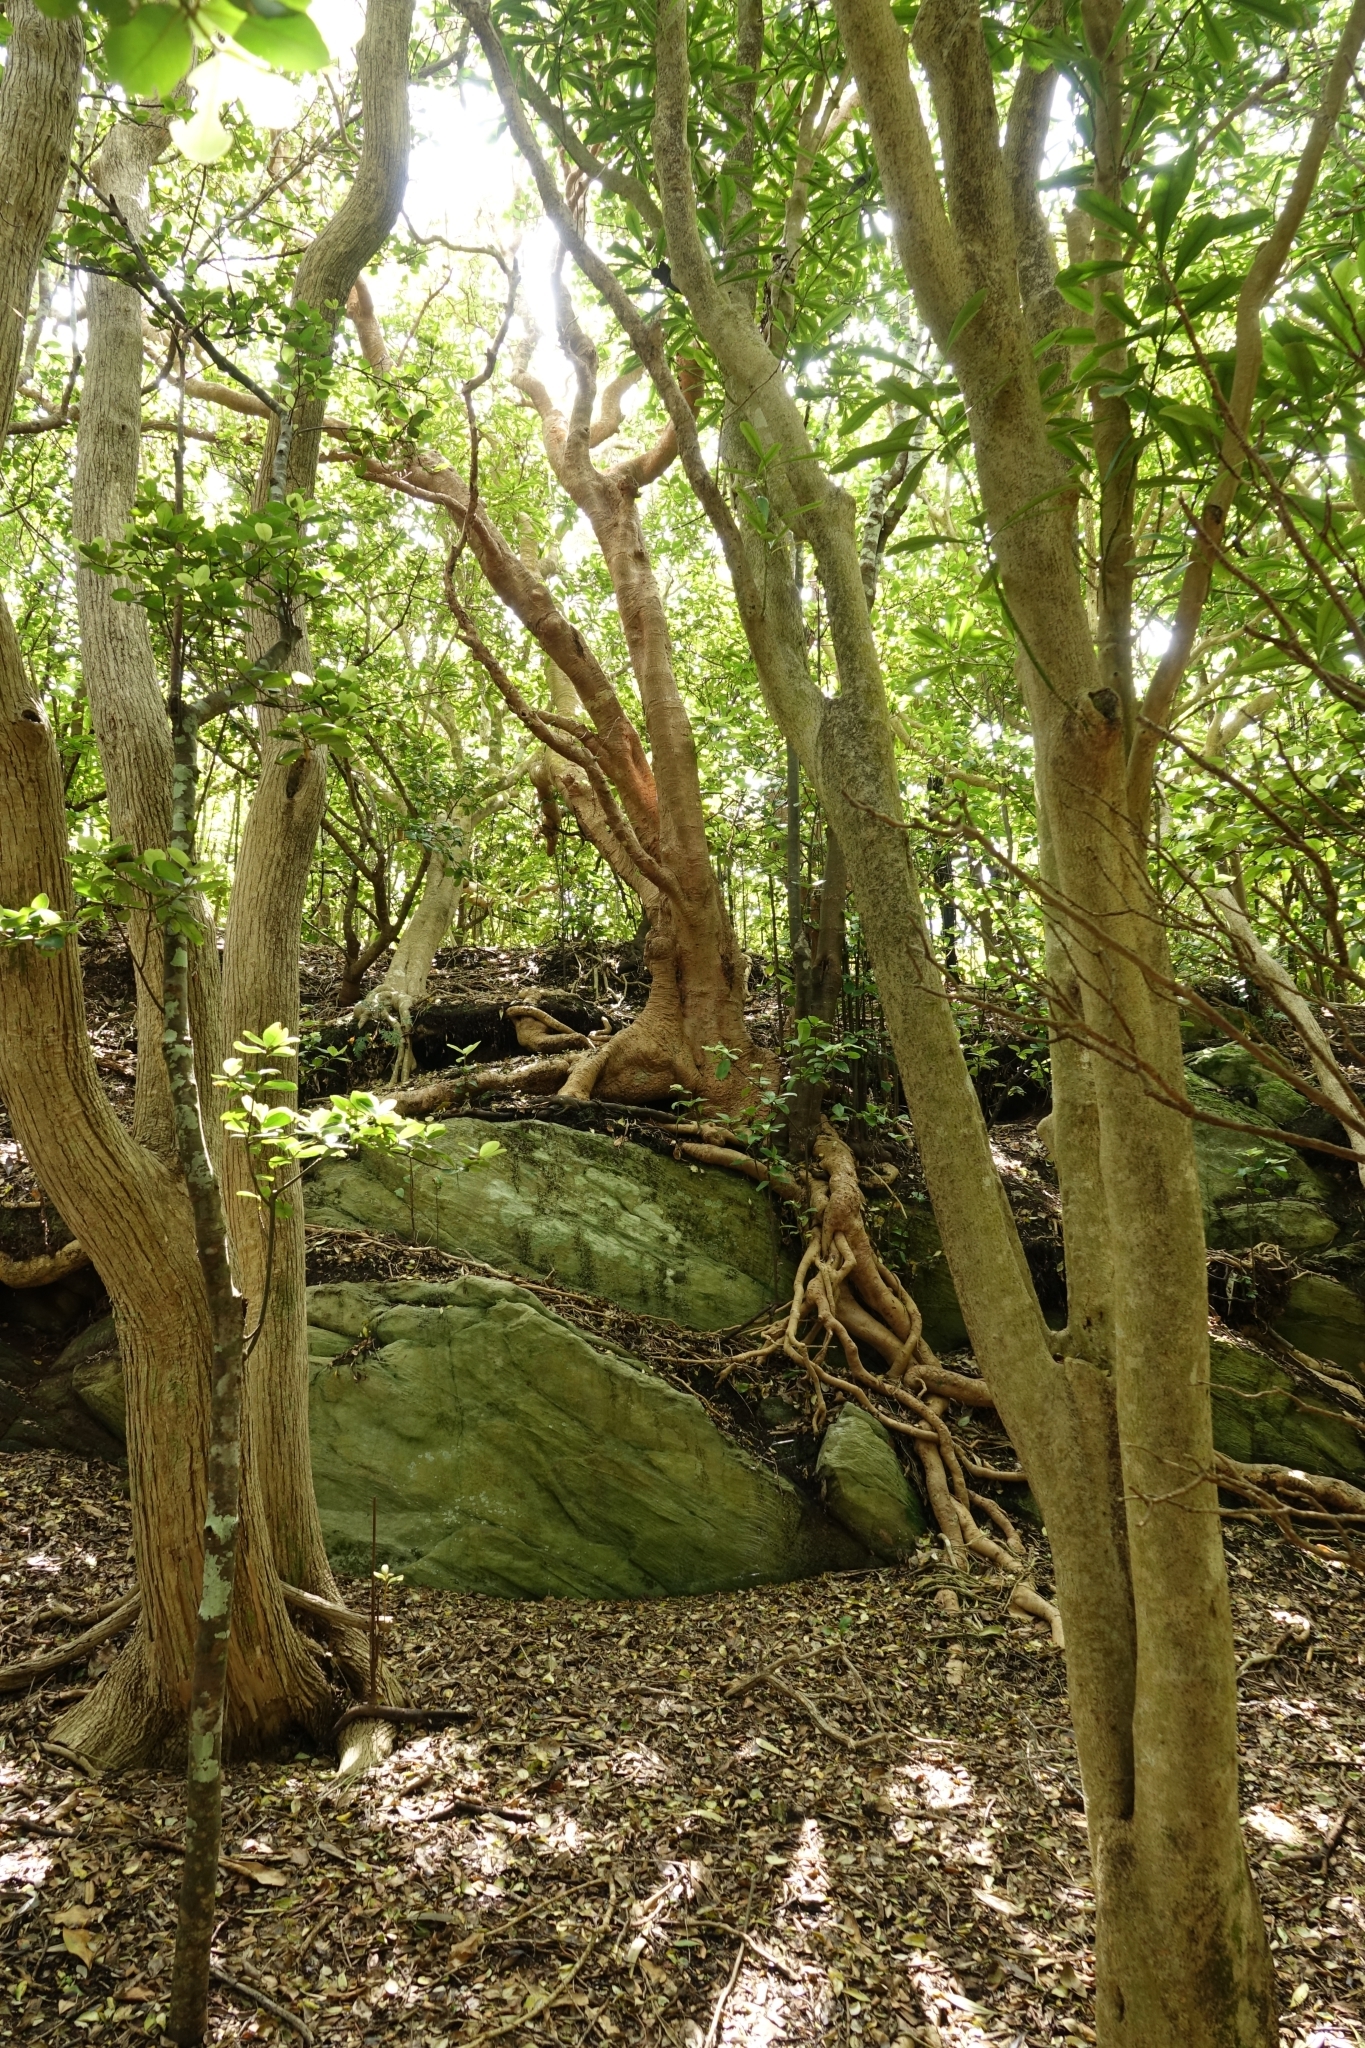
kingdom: Plantae
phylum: Tracheophyta
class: Magnoliopsida
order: Ericales
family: Primulaceae
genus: Myrsine
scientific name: Myrsine chathamica
